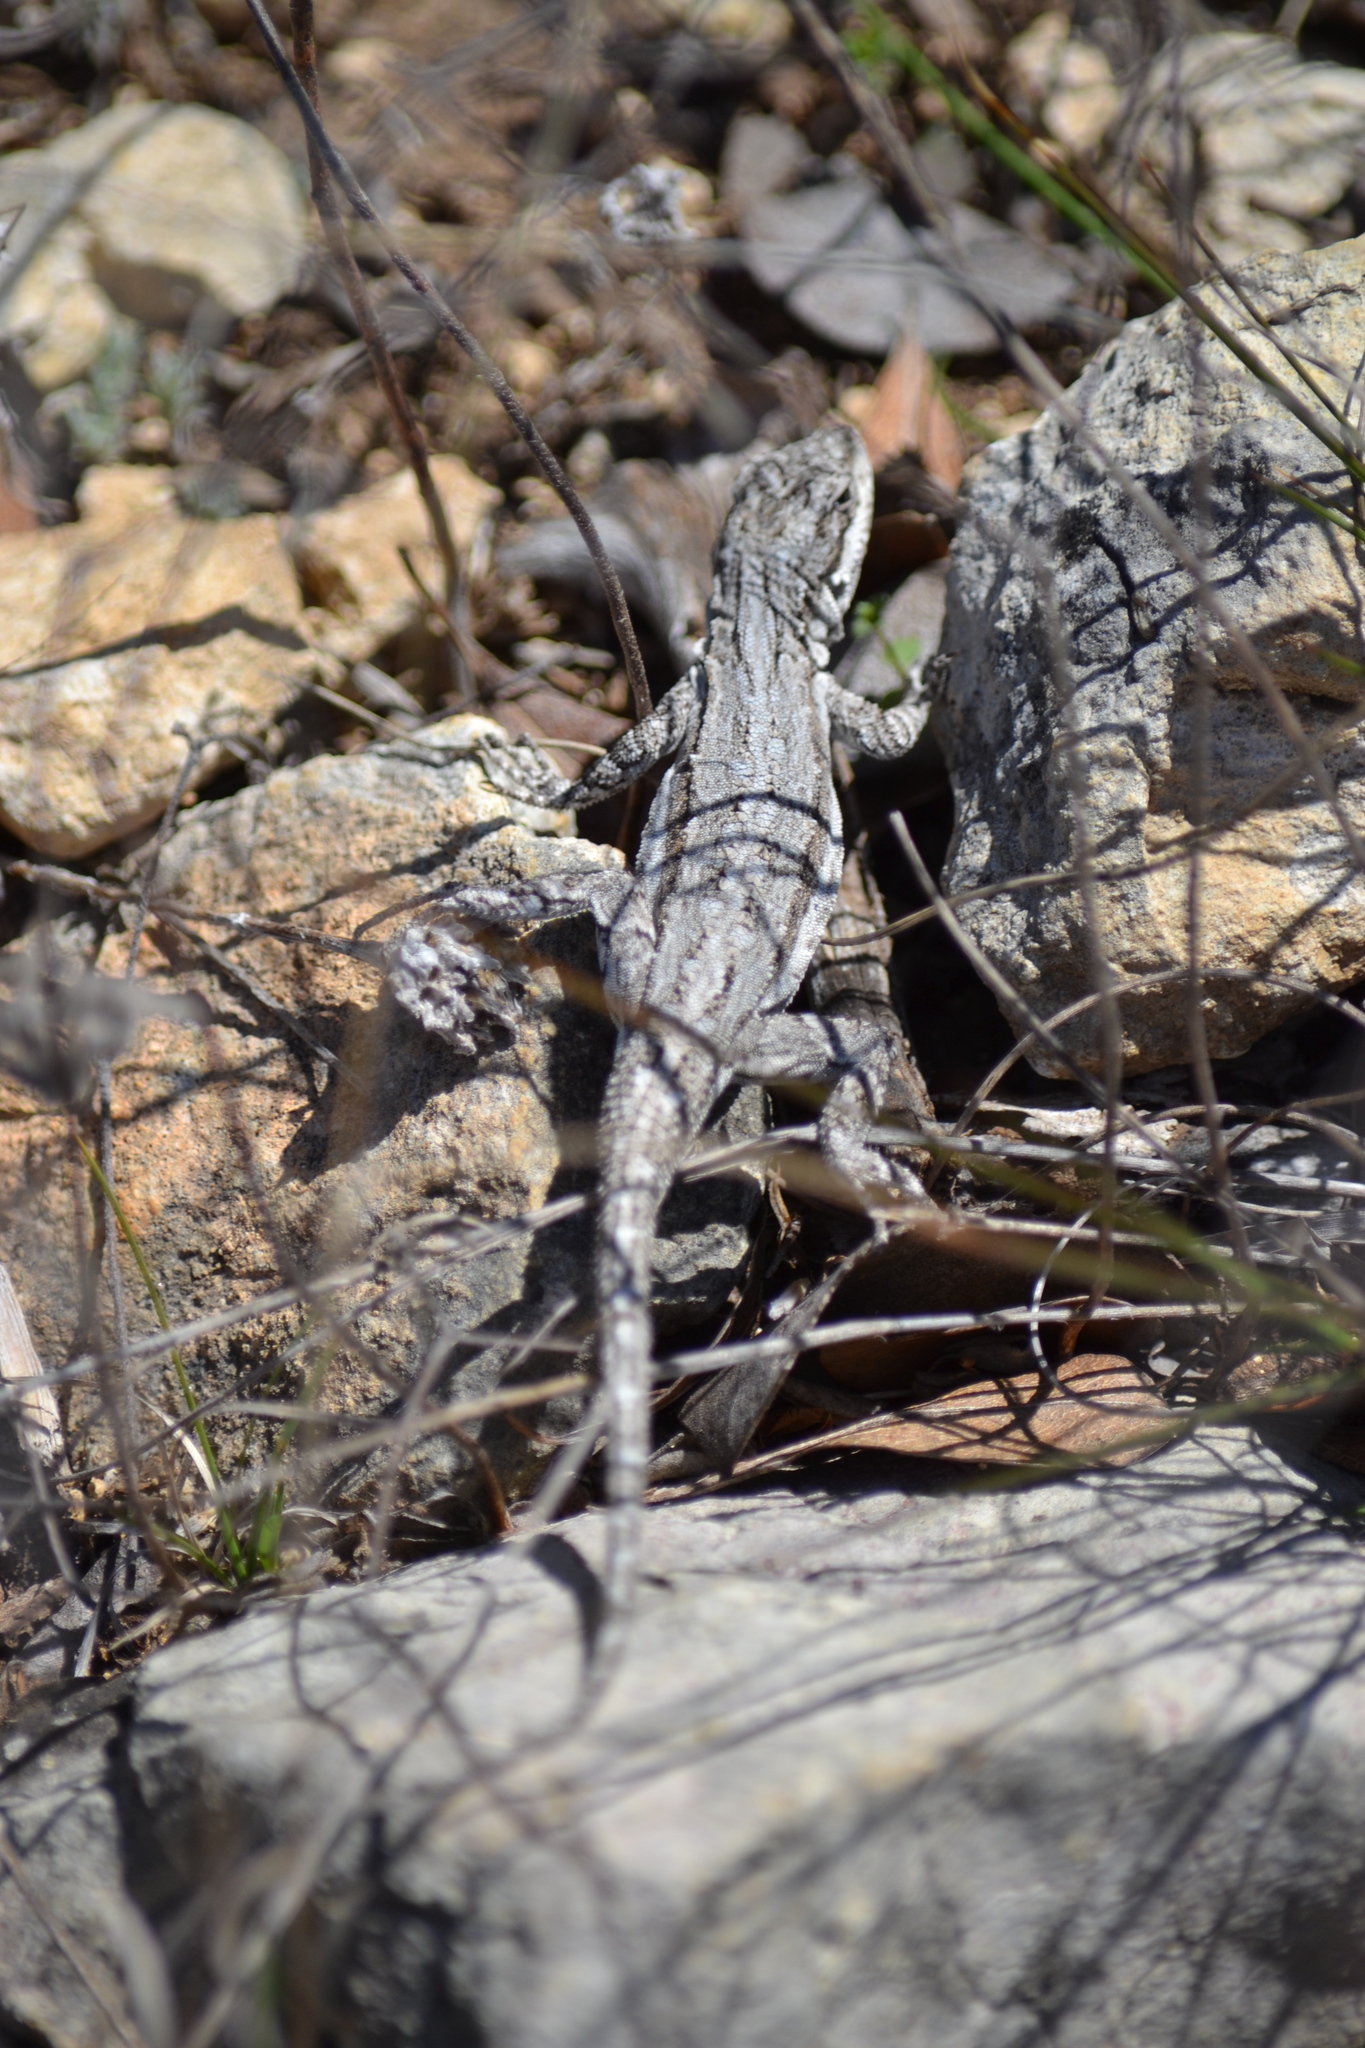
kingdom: Animalia
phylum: Chordata
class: Squamata
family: Phrynosomatidae
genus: Urosaurus
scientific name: Urosaurus ornatus
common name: Ornate tree lizard
